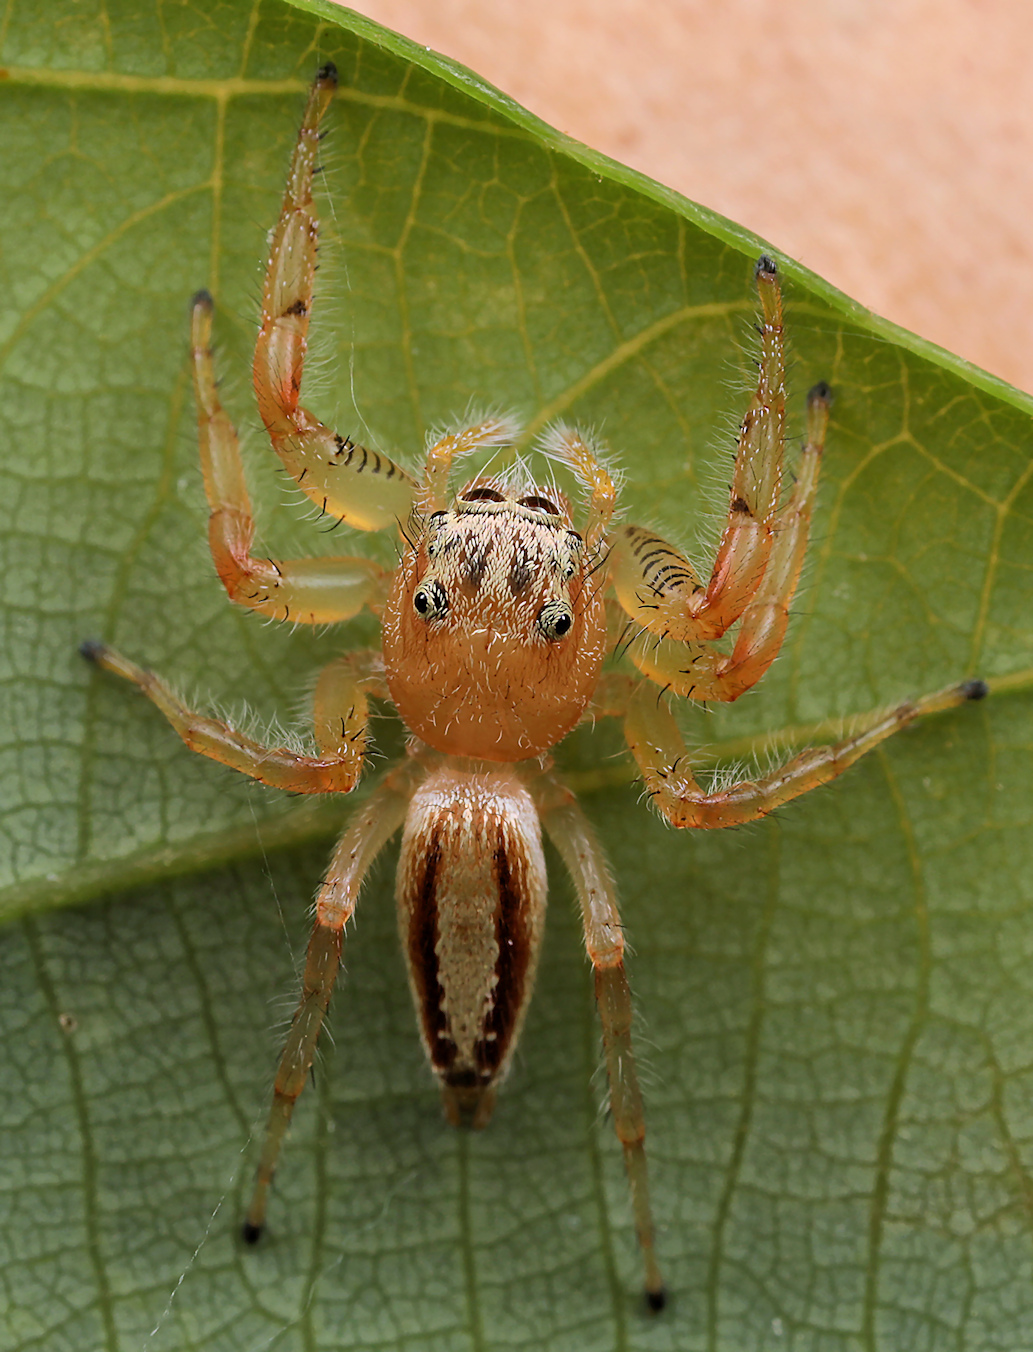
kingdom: Animalia
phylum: Arthropoda
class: Arachnida
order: Araneae
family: Salticidae
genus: Thyene
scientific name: Thyene ogdeni
